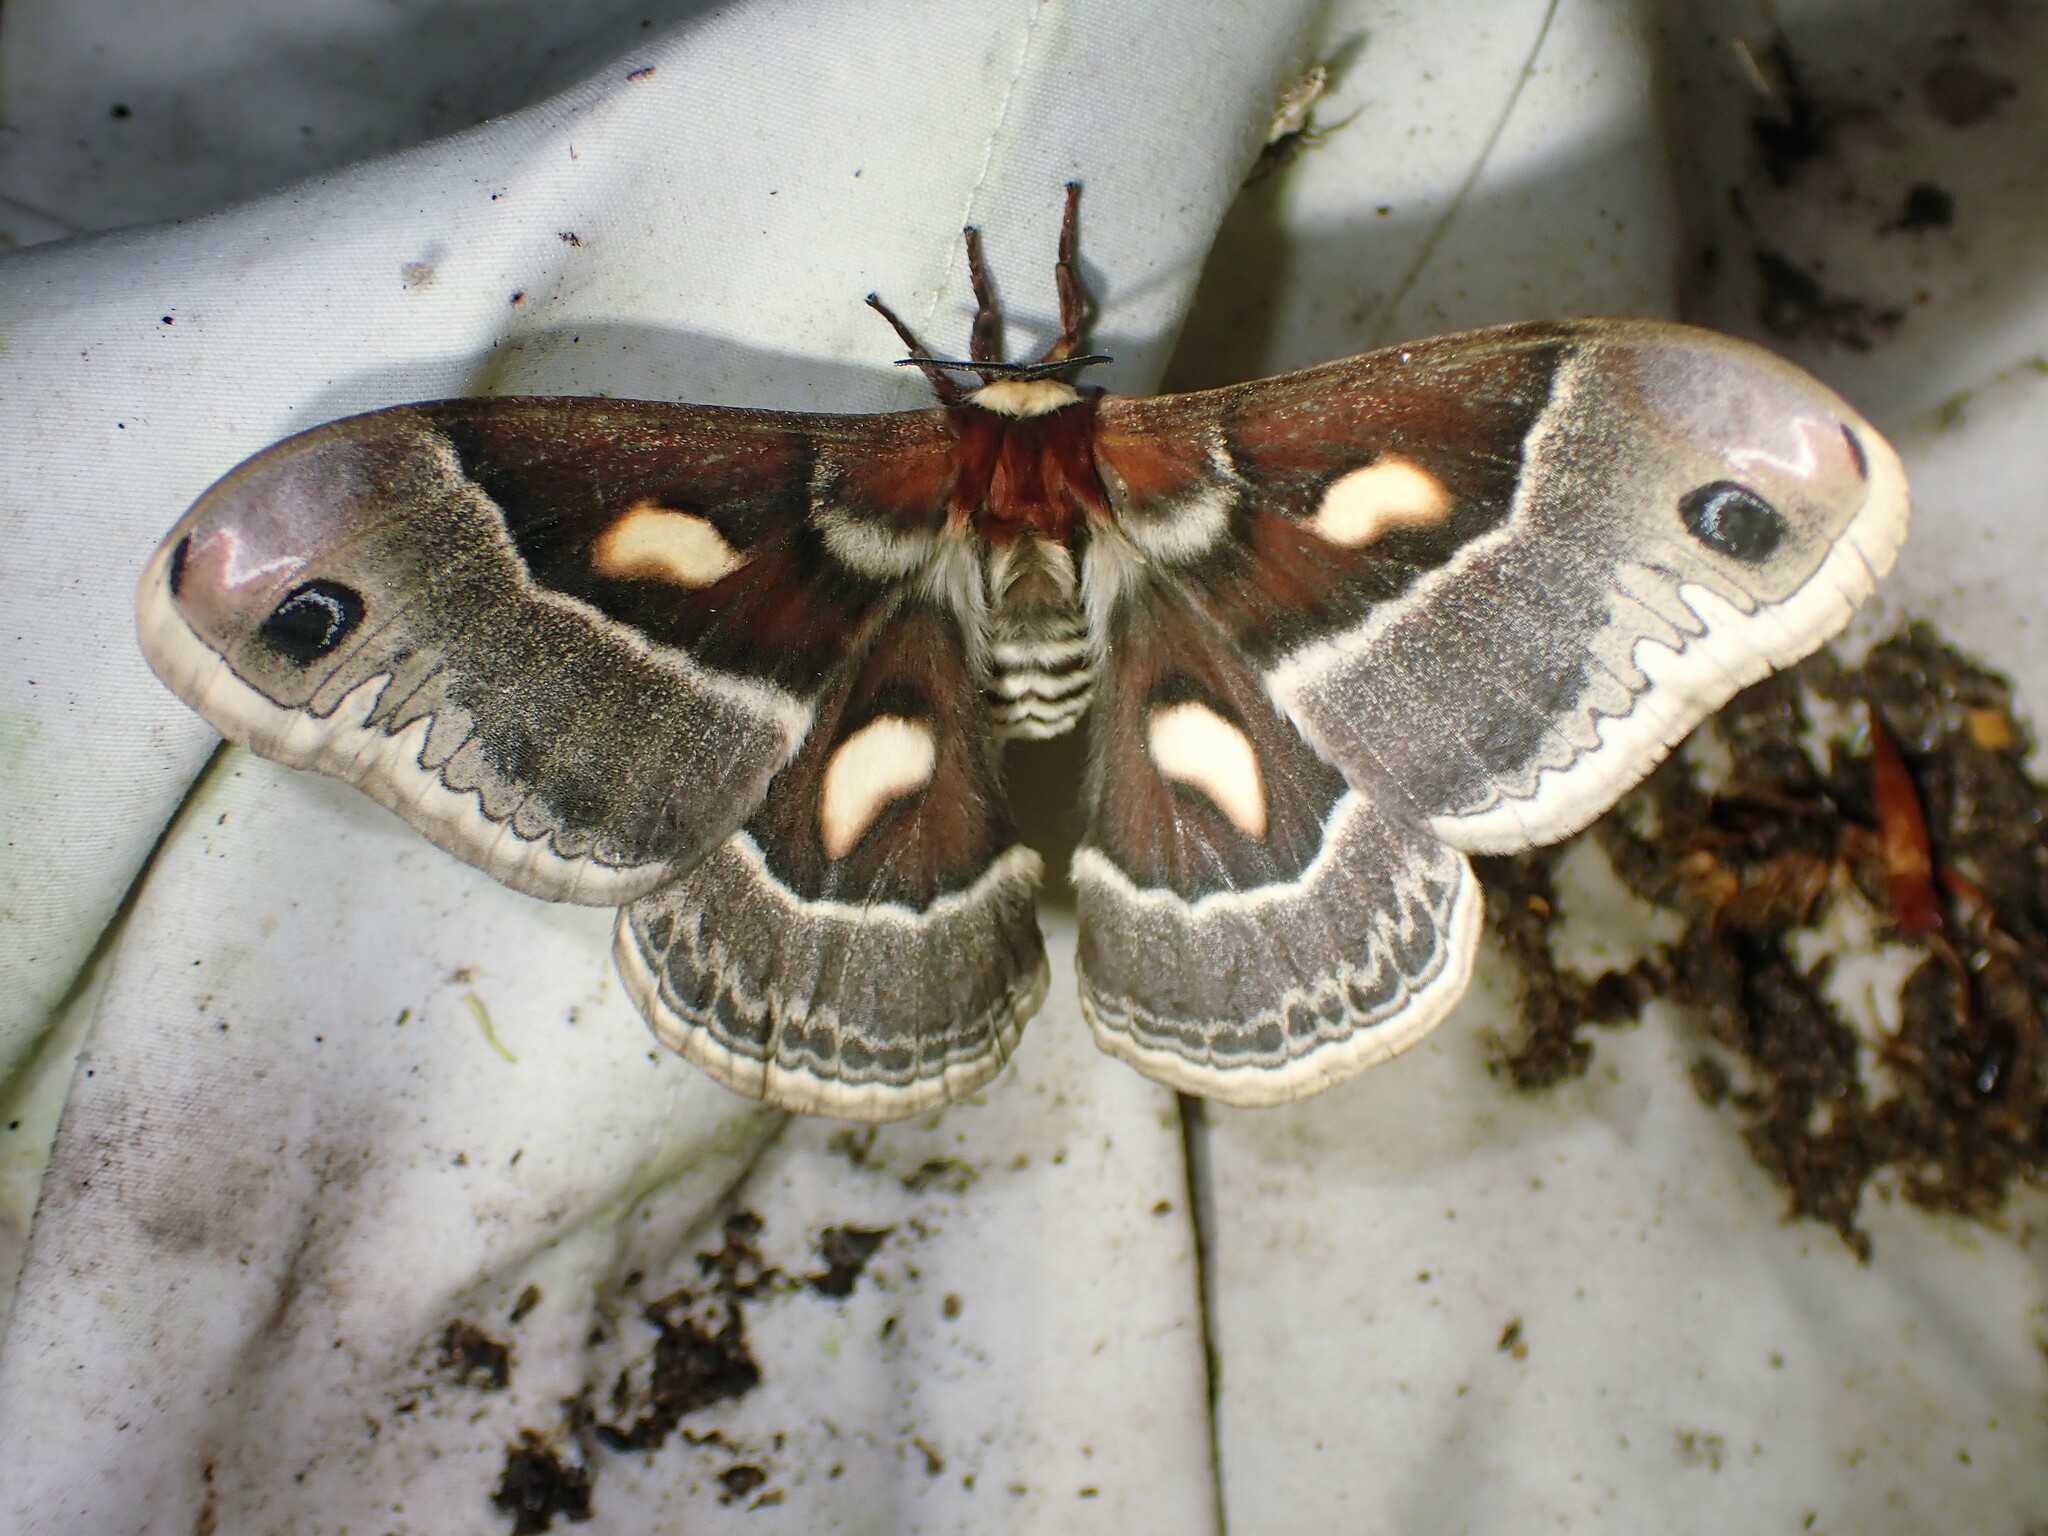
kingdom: Animalia
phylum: Arthropoda
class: Insecta
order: Lepidoptera
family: Saturniidae
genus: Hyalophora
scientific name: Hyalophora columbia
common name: Columbia silkmoth
